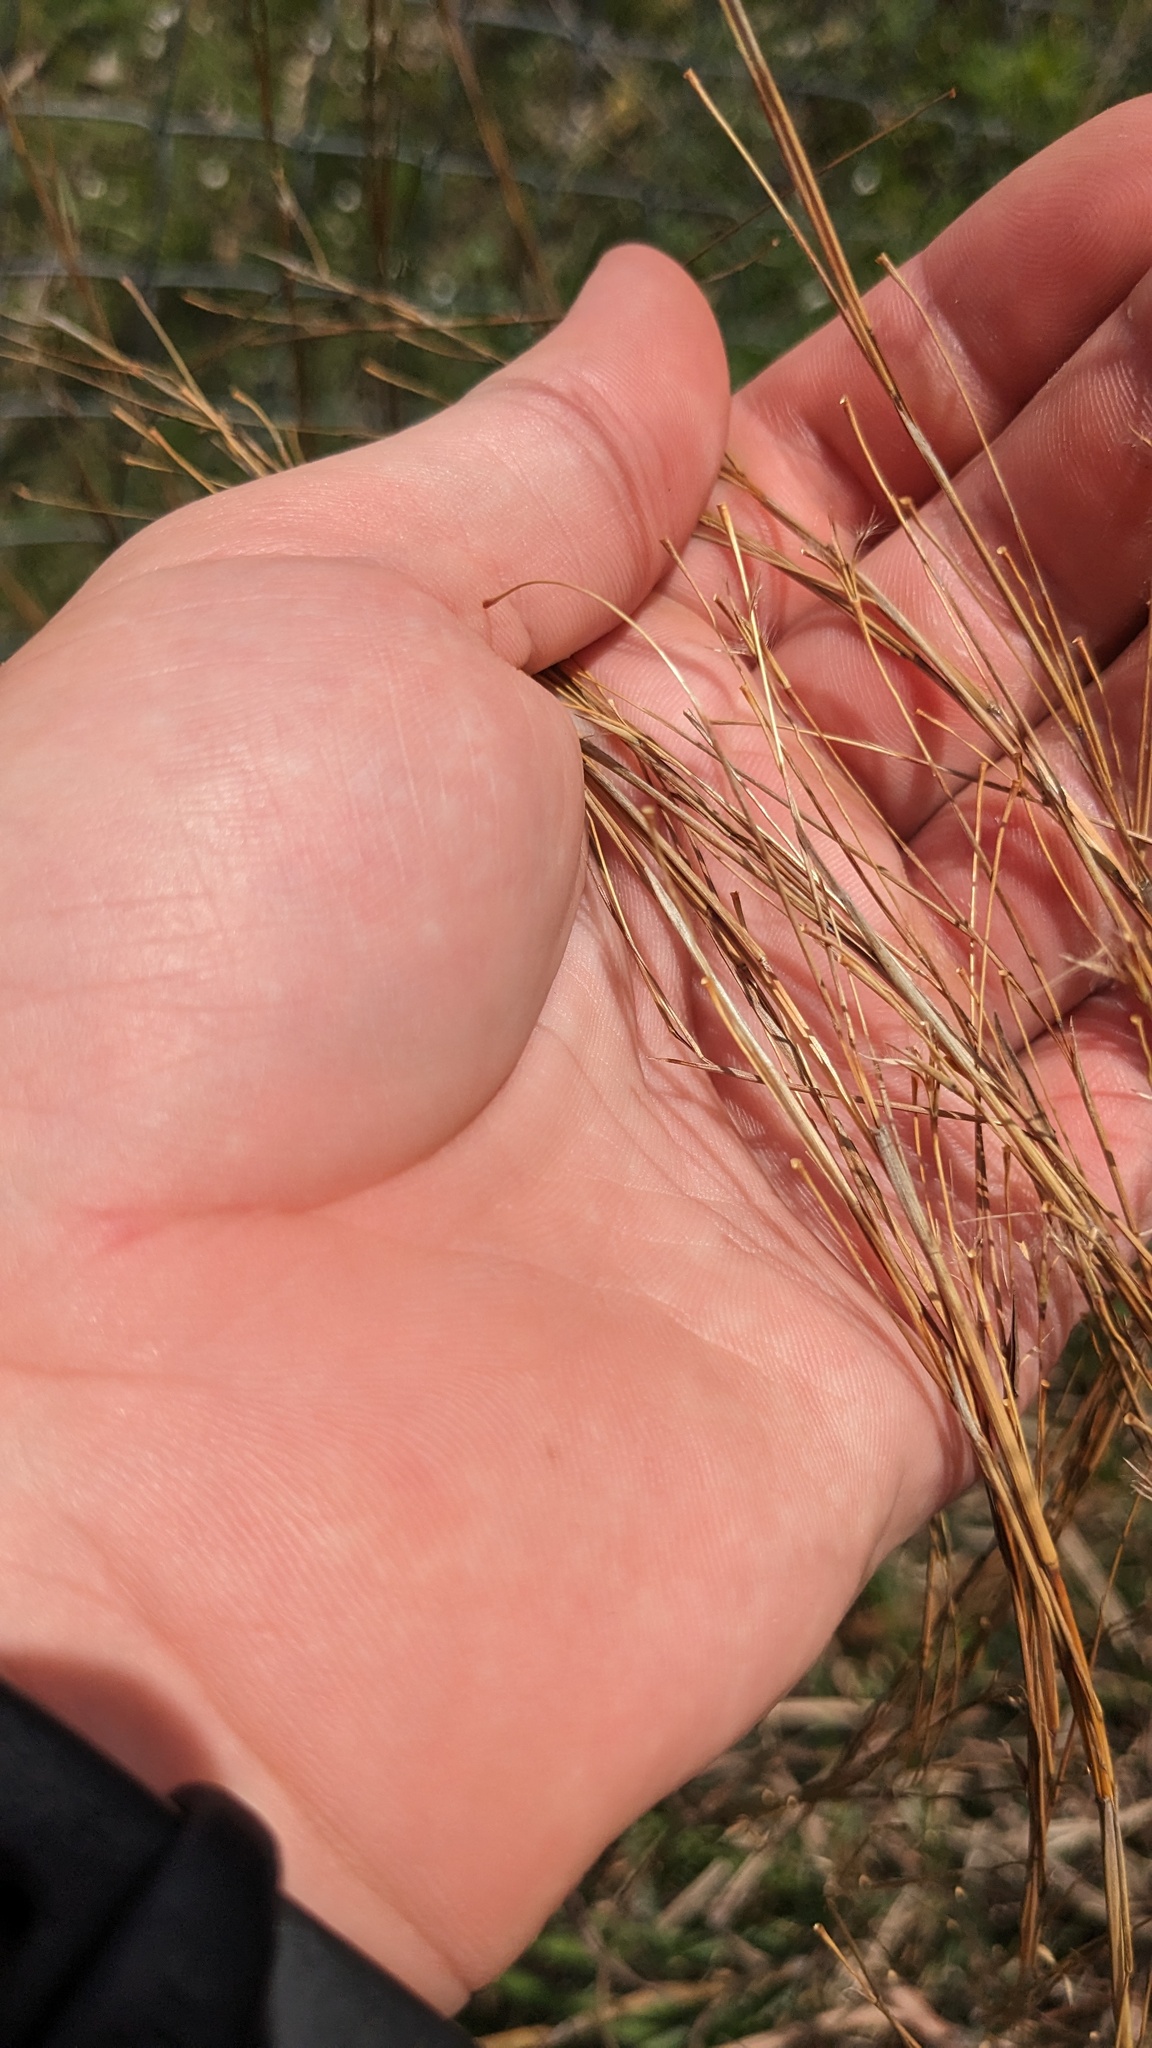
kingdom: Plantae
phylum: Tracheophyta
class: Liliopsida
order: Poales
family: Poaceae
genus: Schizachyrium
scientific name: Schizachyrium scoparium
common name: Little bluestem
